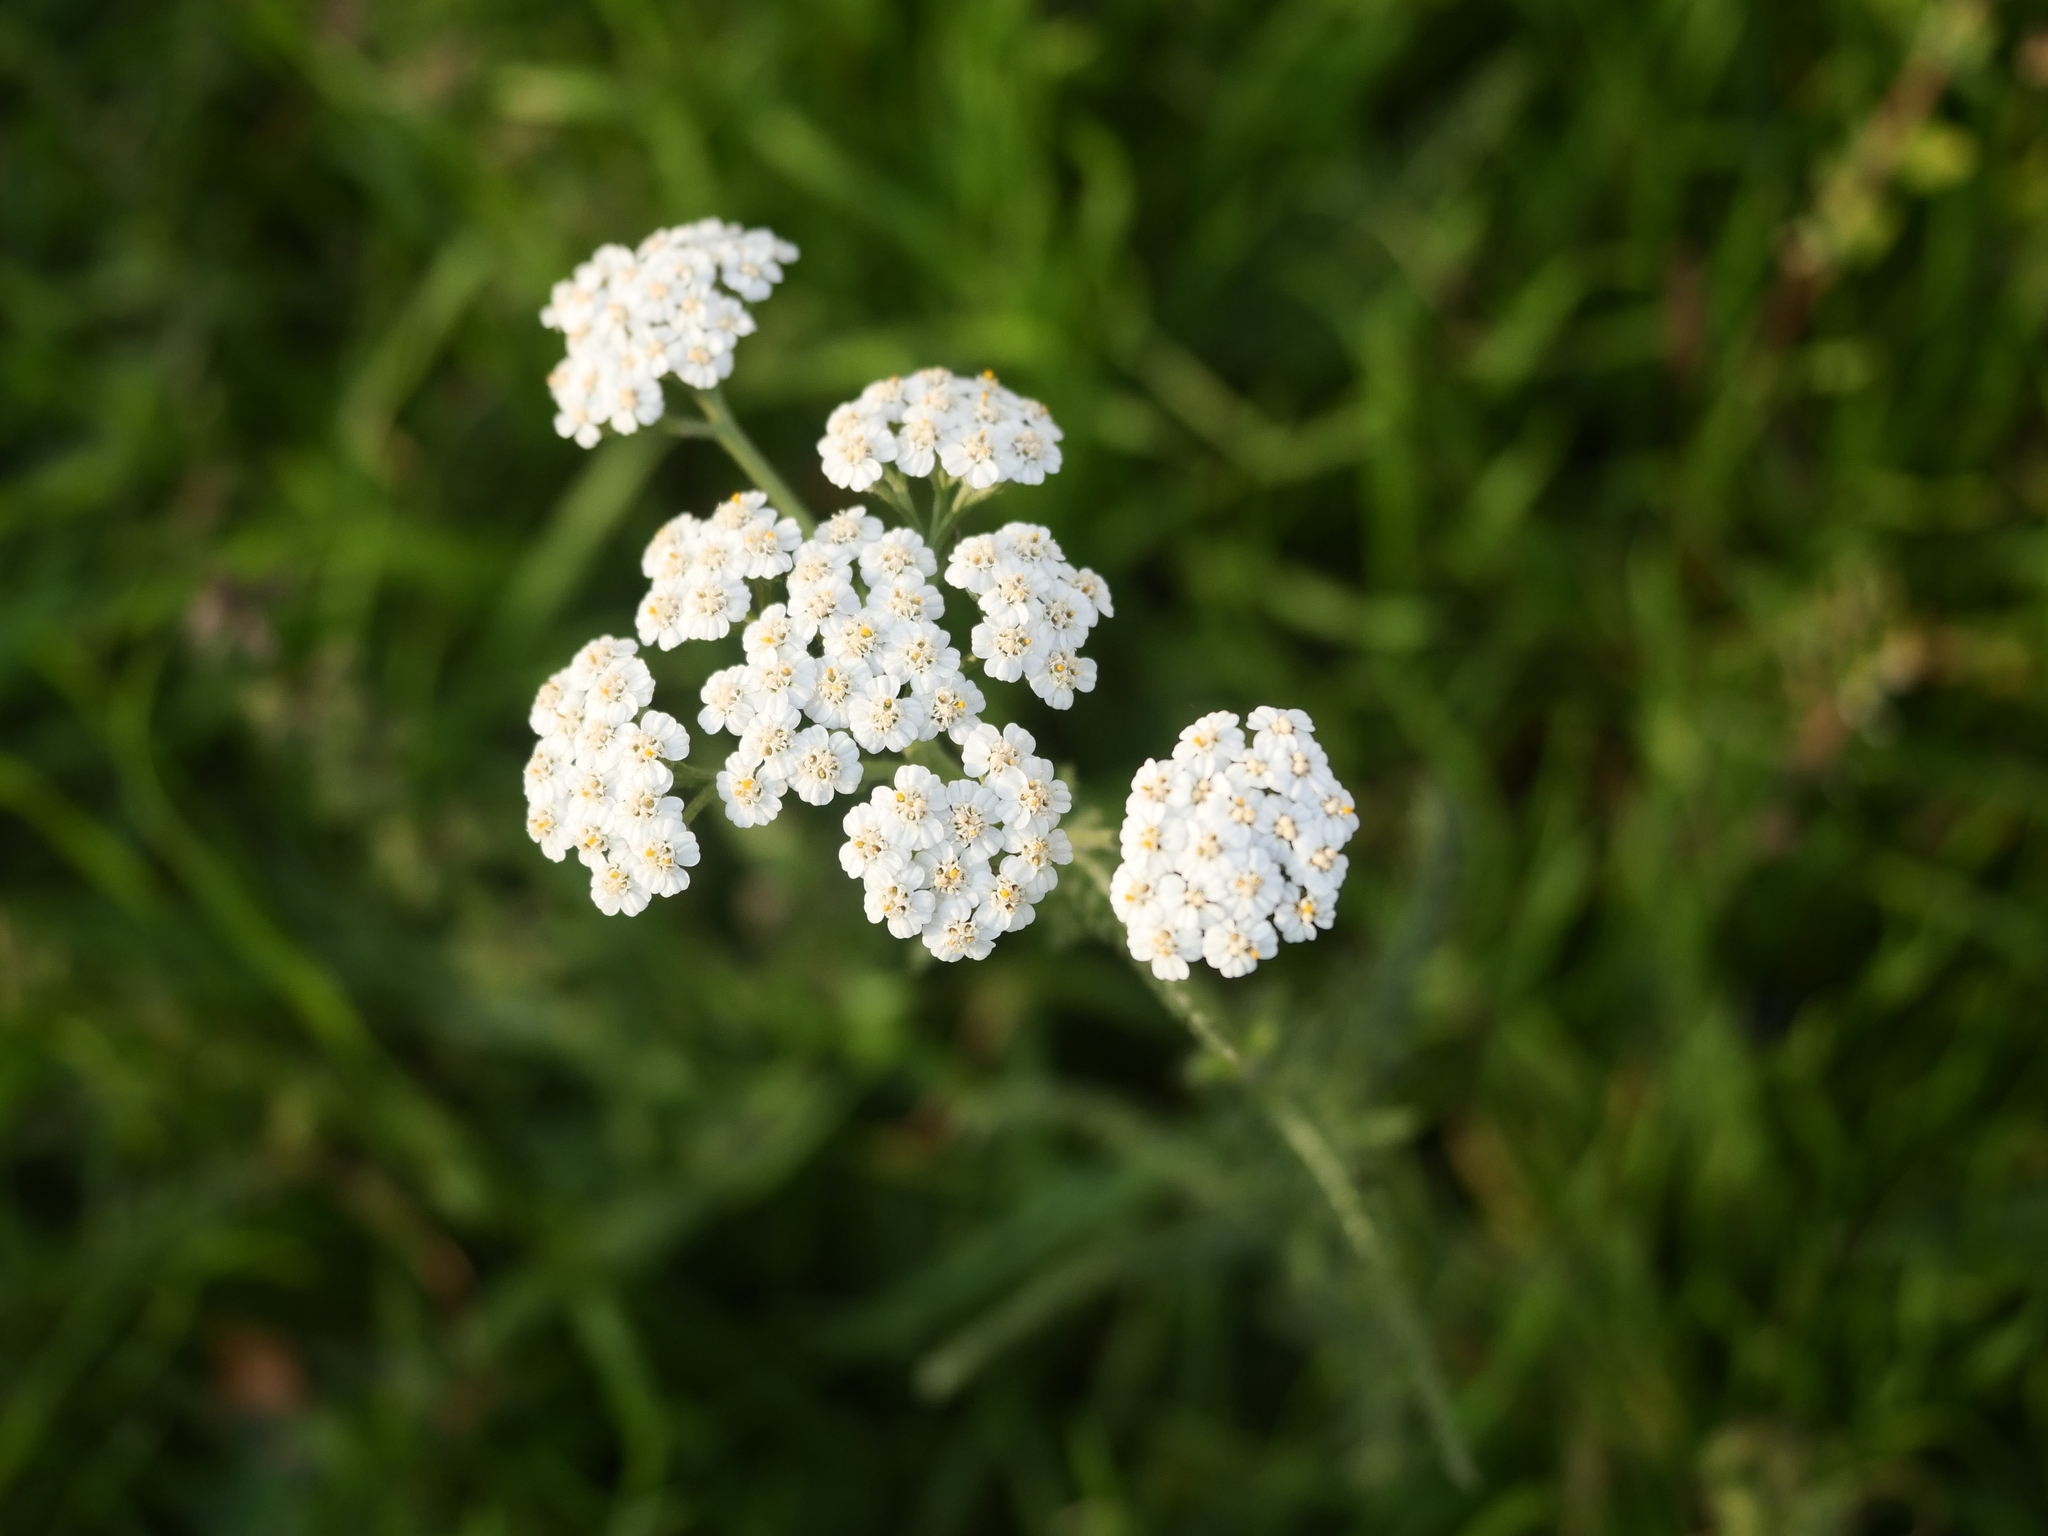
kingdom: Plantae
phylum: Tracheophyta
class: Magnoliopsida
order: Asterales
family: Asteraceae
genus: Achillea
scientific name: Achillea millefolium
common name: Yarrow
